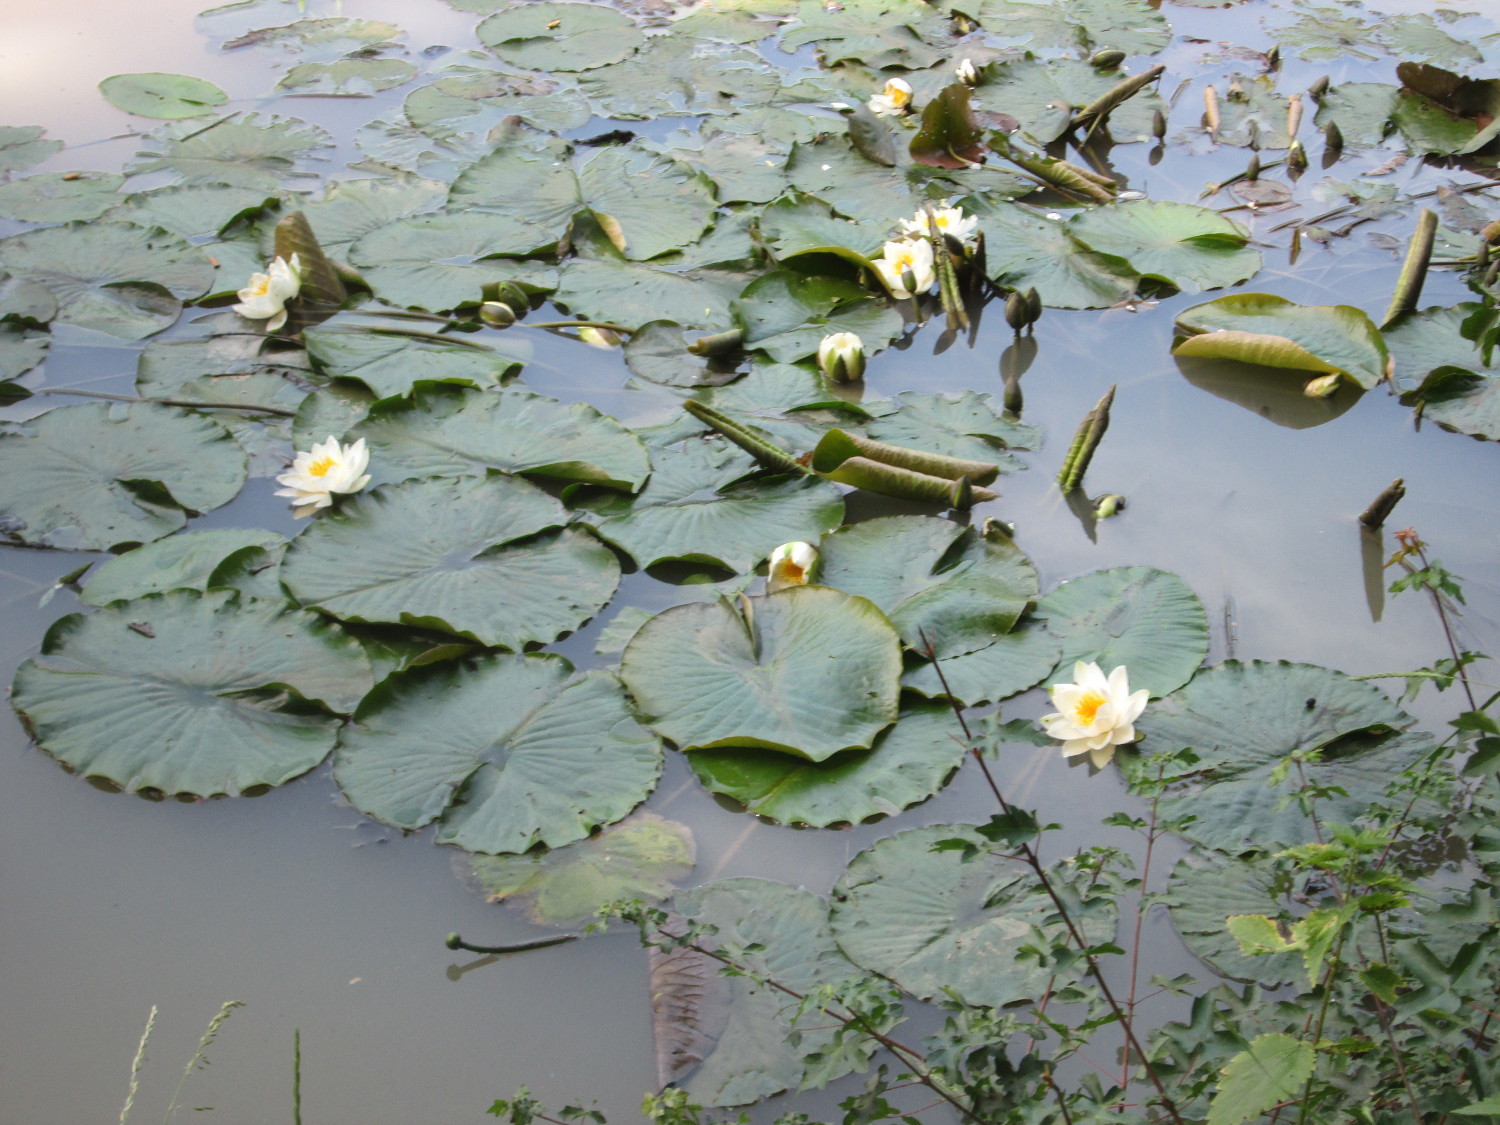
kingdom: Plantae
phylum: Tracheophyta
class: Magnoliopsida
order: Nymphaeales
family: Nymphaeaceae
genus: Nymphaea
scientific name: Nymphaea alba
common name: White water-lily
